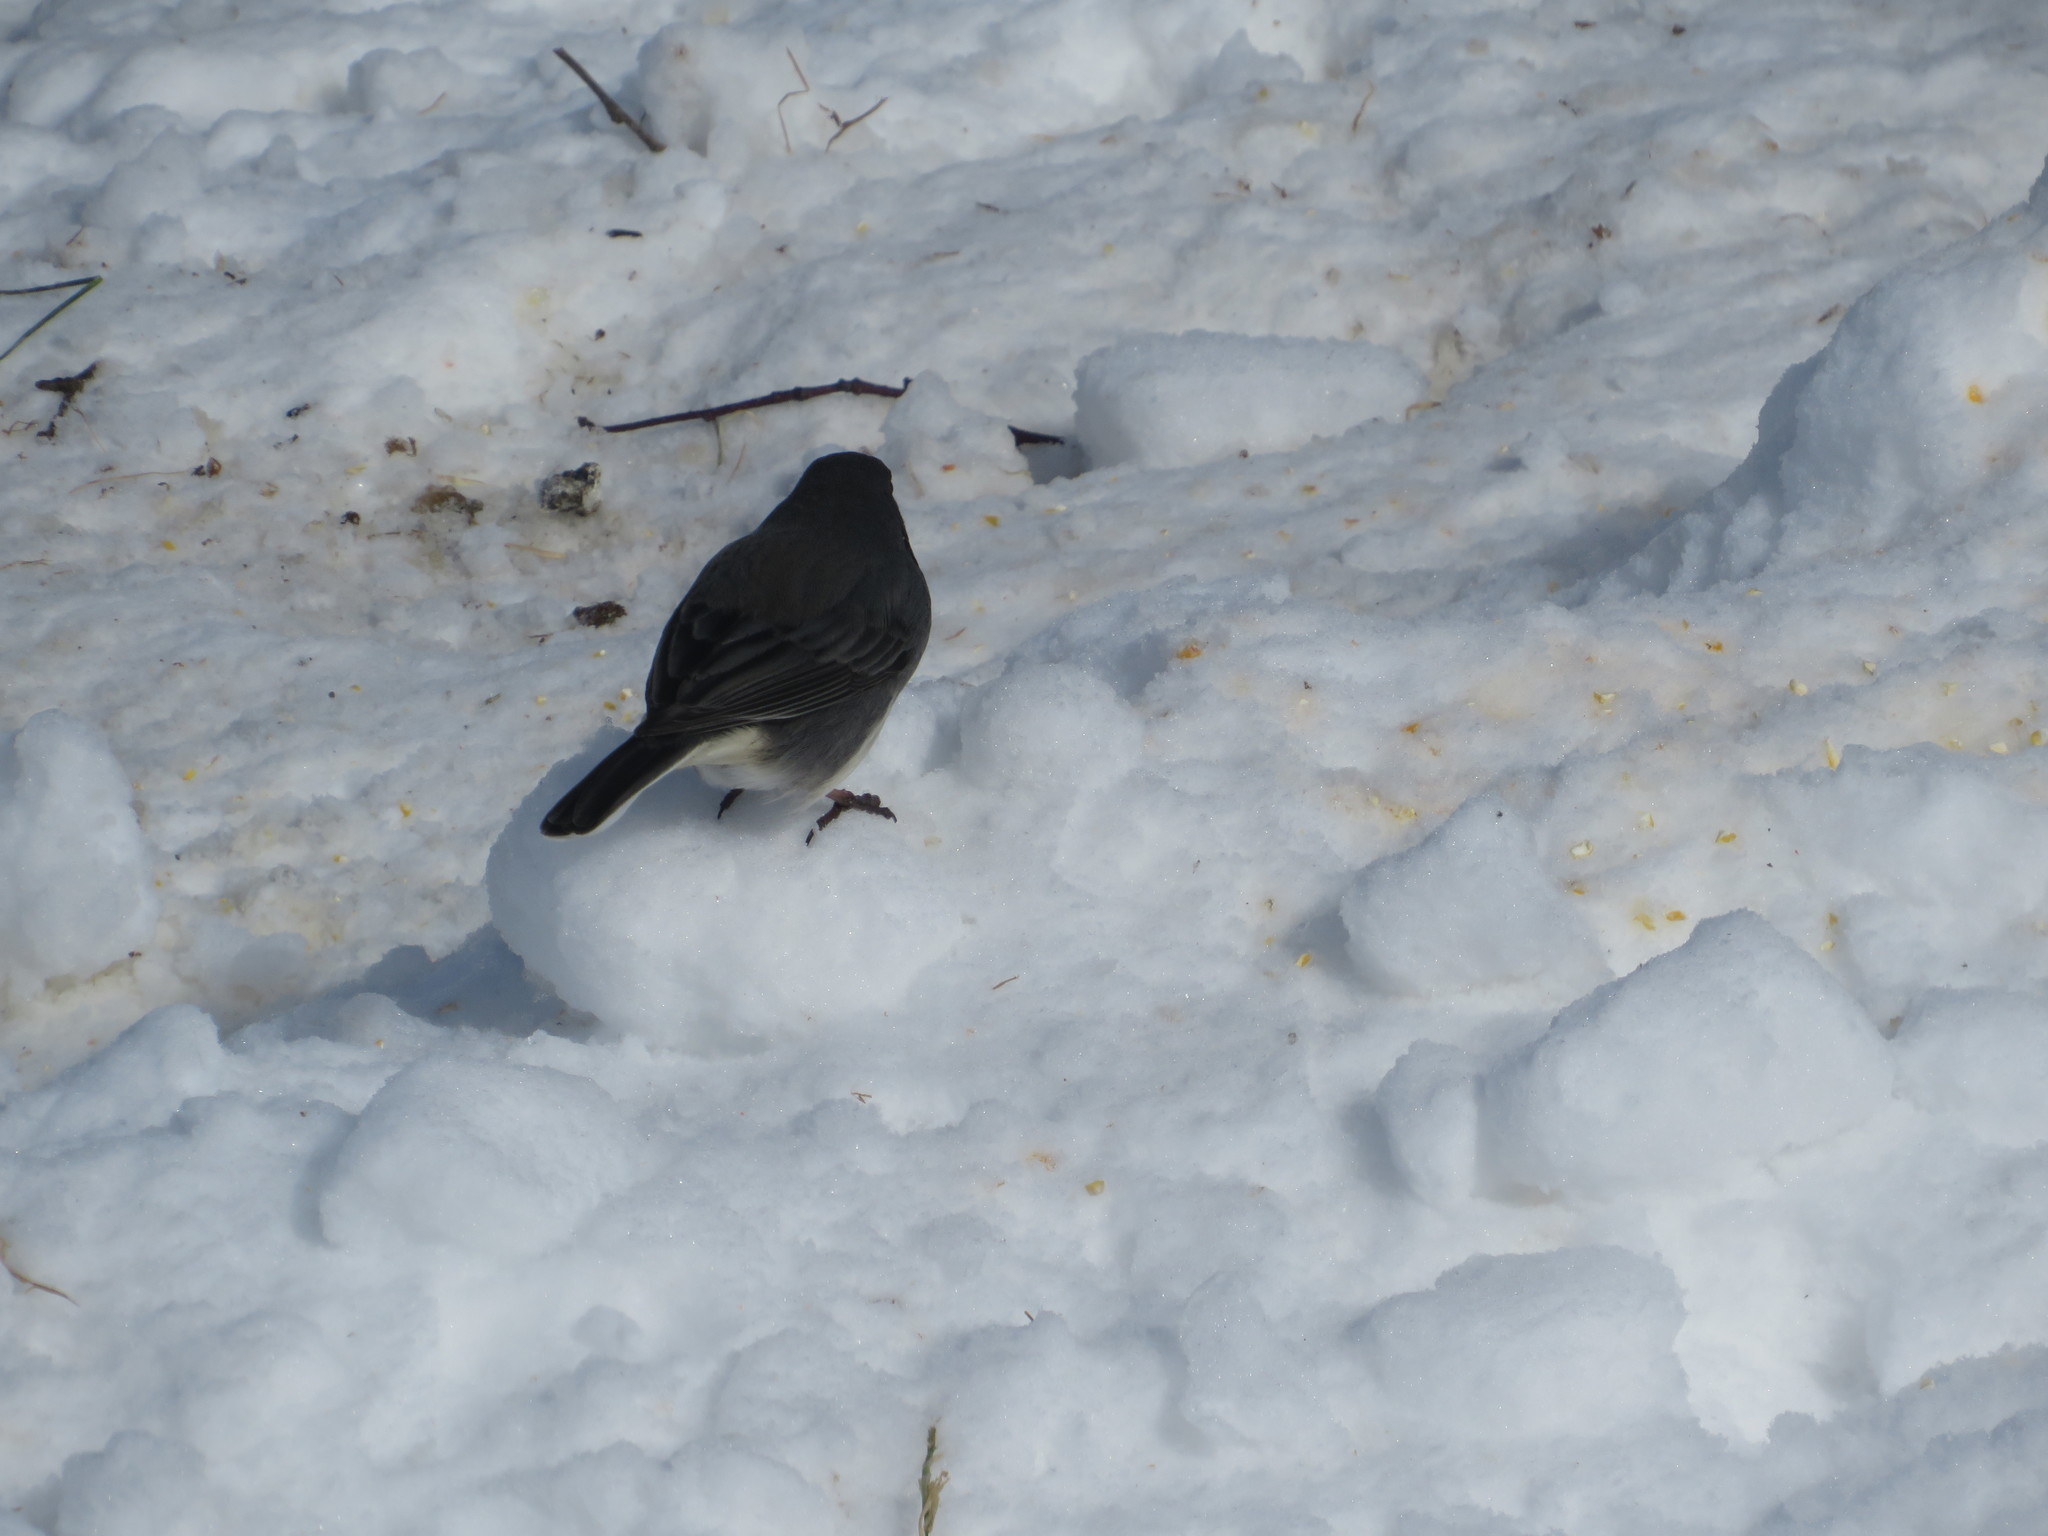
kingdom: Animalia
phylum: Chordata
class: Aves
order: Passeriformes
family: Passerellidae
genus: Junco
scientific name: Junco hyemalis
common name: Dark-eyed junco
